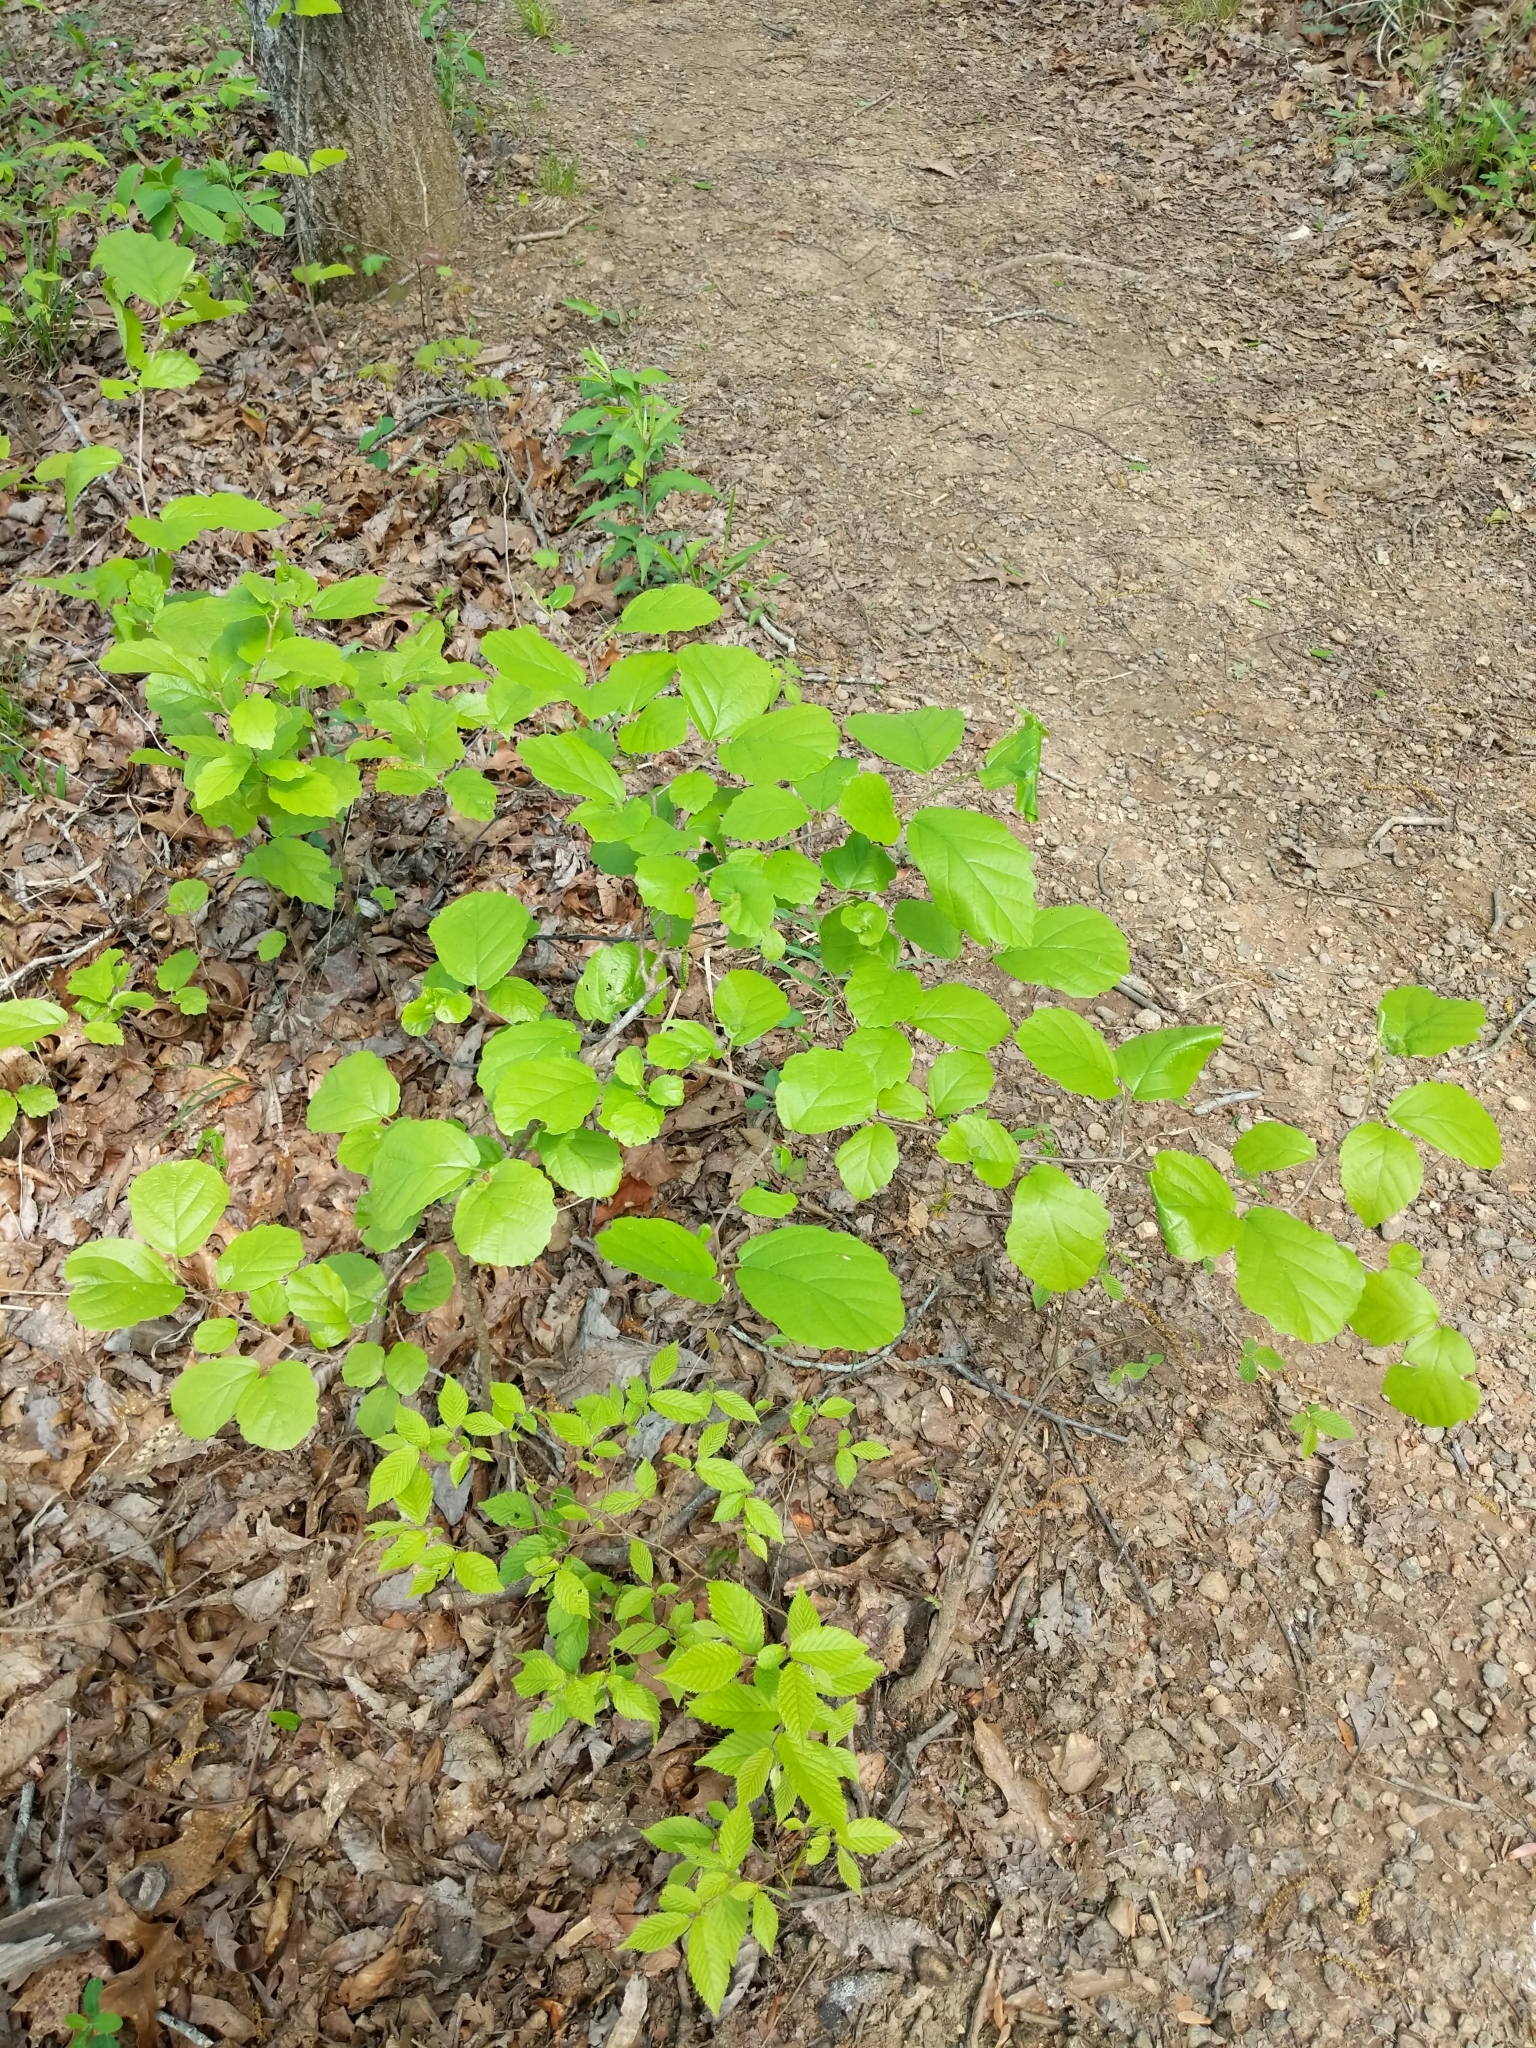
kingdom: Plantae
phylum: Tracheophyta
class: Magnoliopsida
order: Saxifragales
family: Hamamelidaceae
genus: Hamamelis
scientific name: Hamamelis virginiana
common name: Witch-hazel
